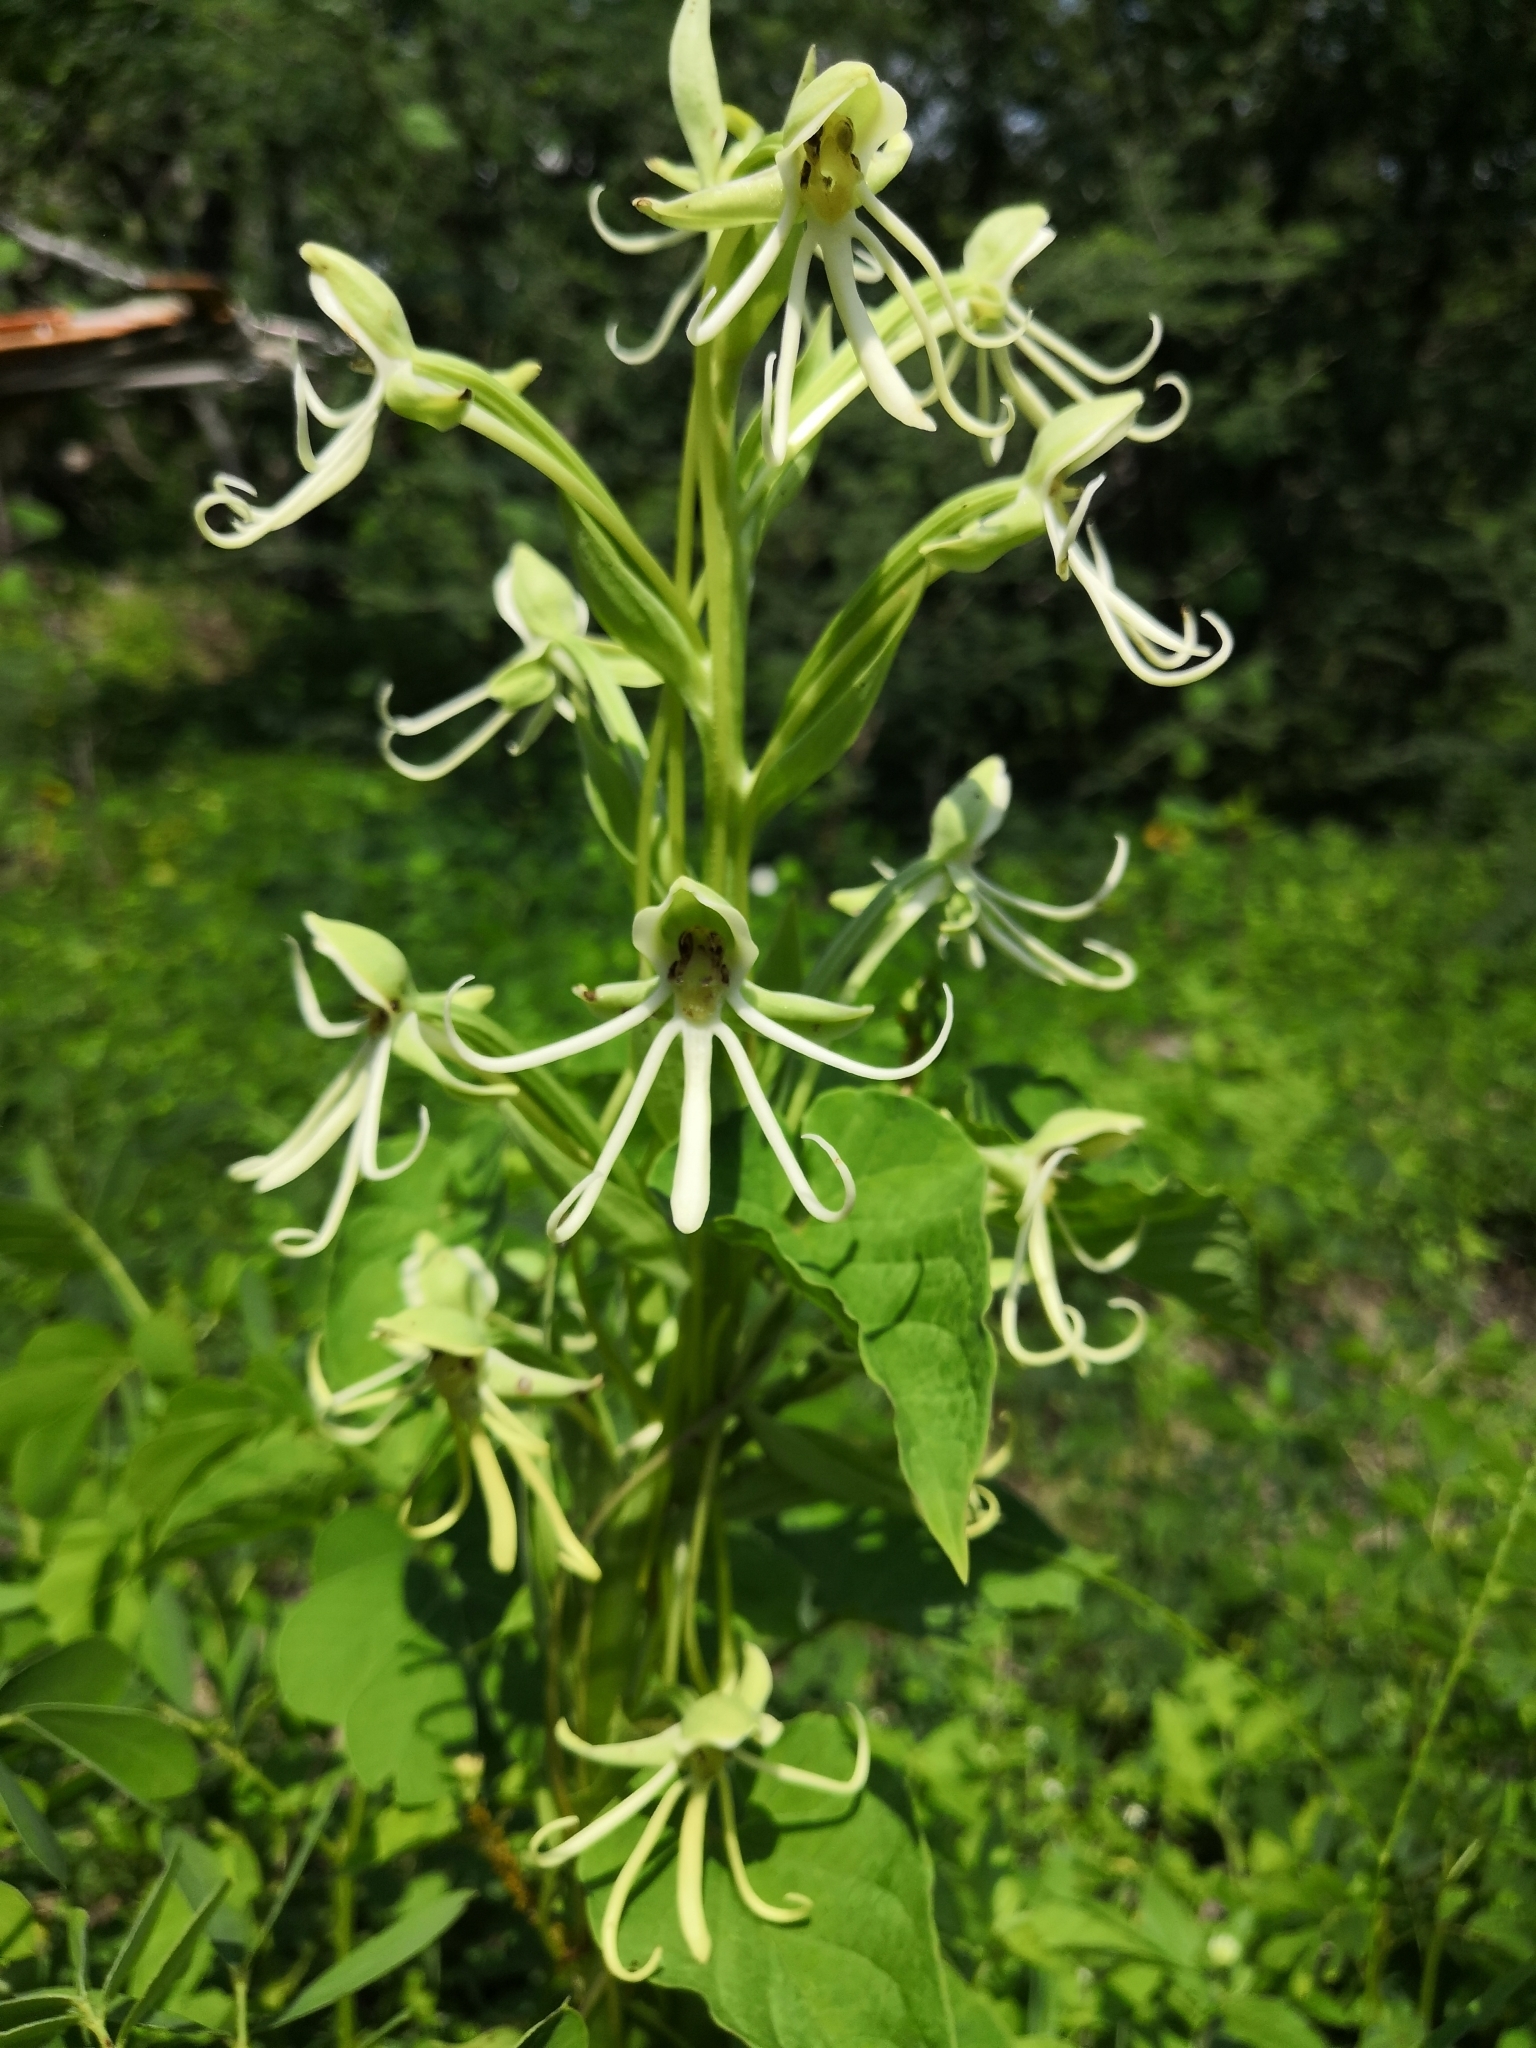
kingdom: Plantae
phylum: Tracheophyta
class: Liliopsida
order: Asparagales
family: Orchidaceae
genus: Habenaria
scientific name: Habenaria macroceratitis
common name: Big-horn bog orchid
